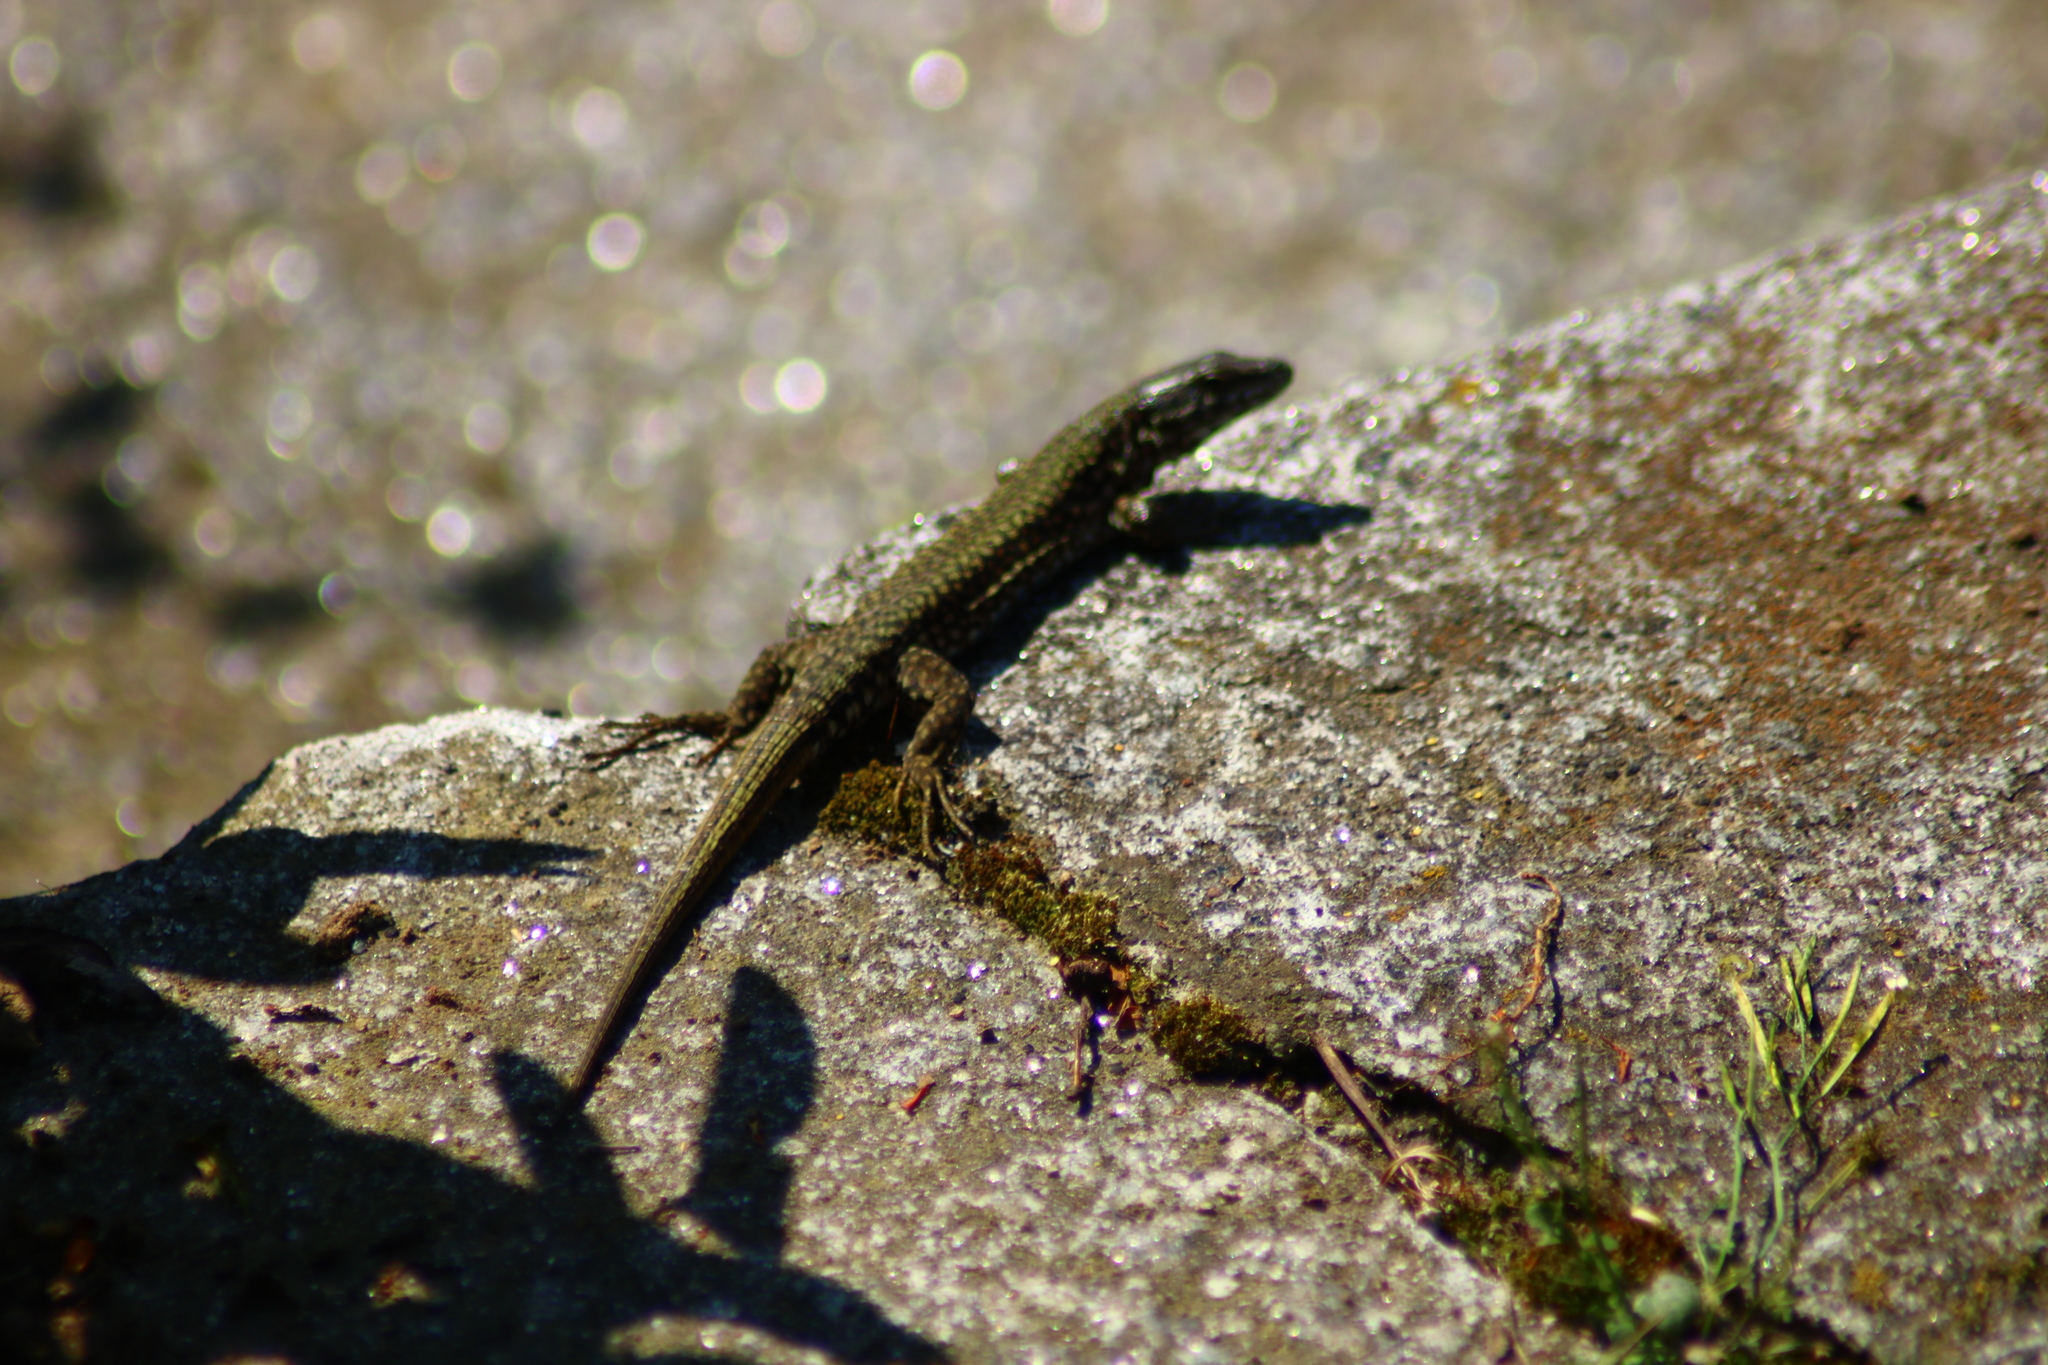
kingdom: Animalia
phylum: Chordata
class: Squamata
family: Lacertidae
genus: Podarcis
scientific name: Podarcis muralis
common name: Common wall lizard
